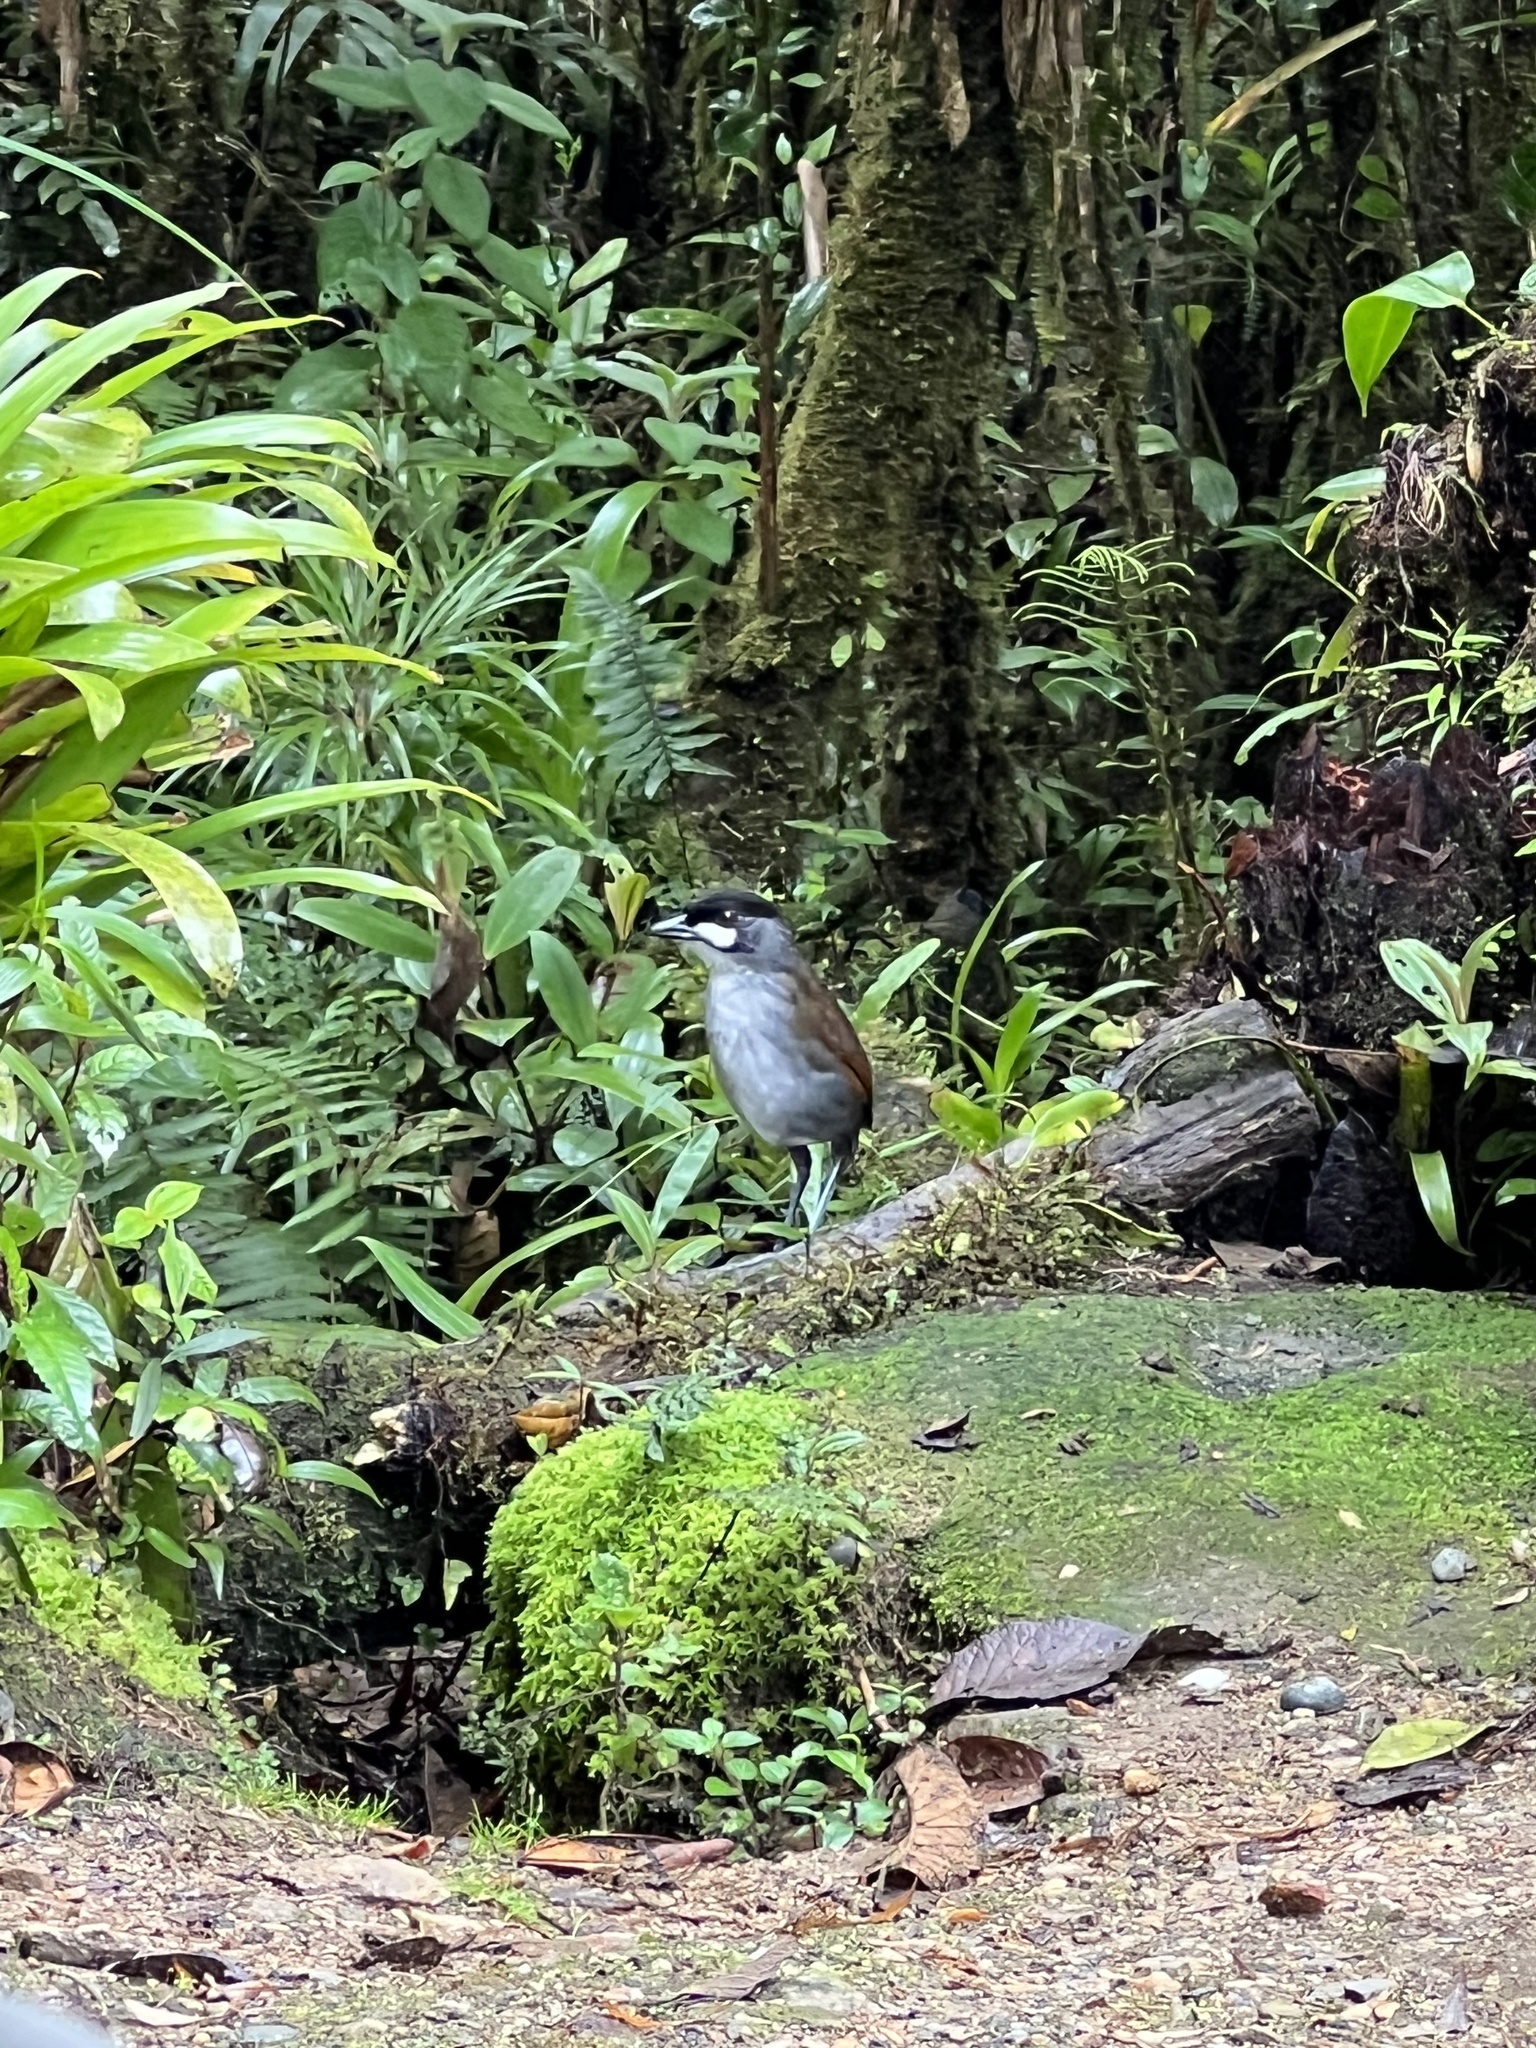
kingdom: Animalia
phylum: Chordata
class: Aves
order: Passeriformes
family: Grallariidae
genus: Grallaria
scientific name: Grallaria ridgelyi
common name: Jocotoco antpitta
